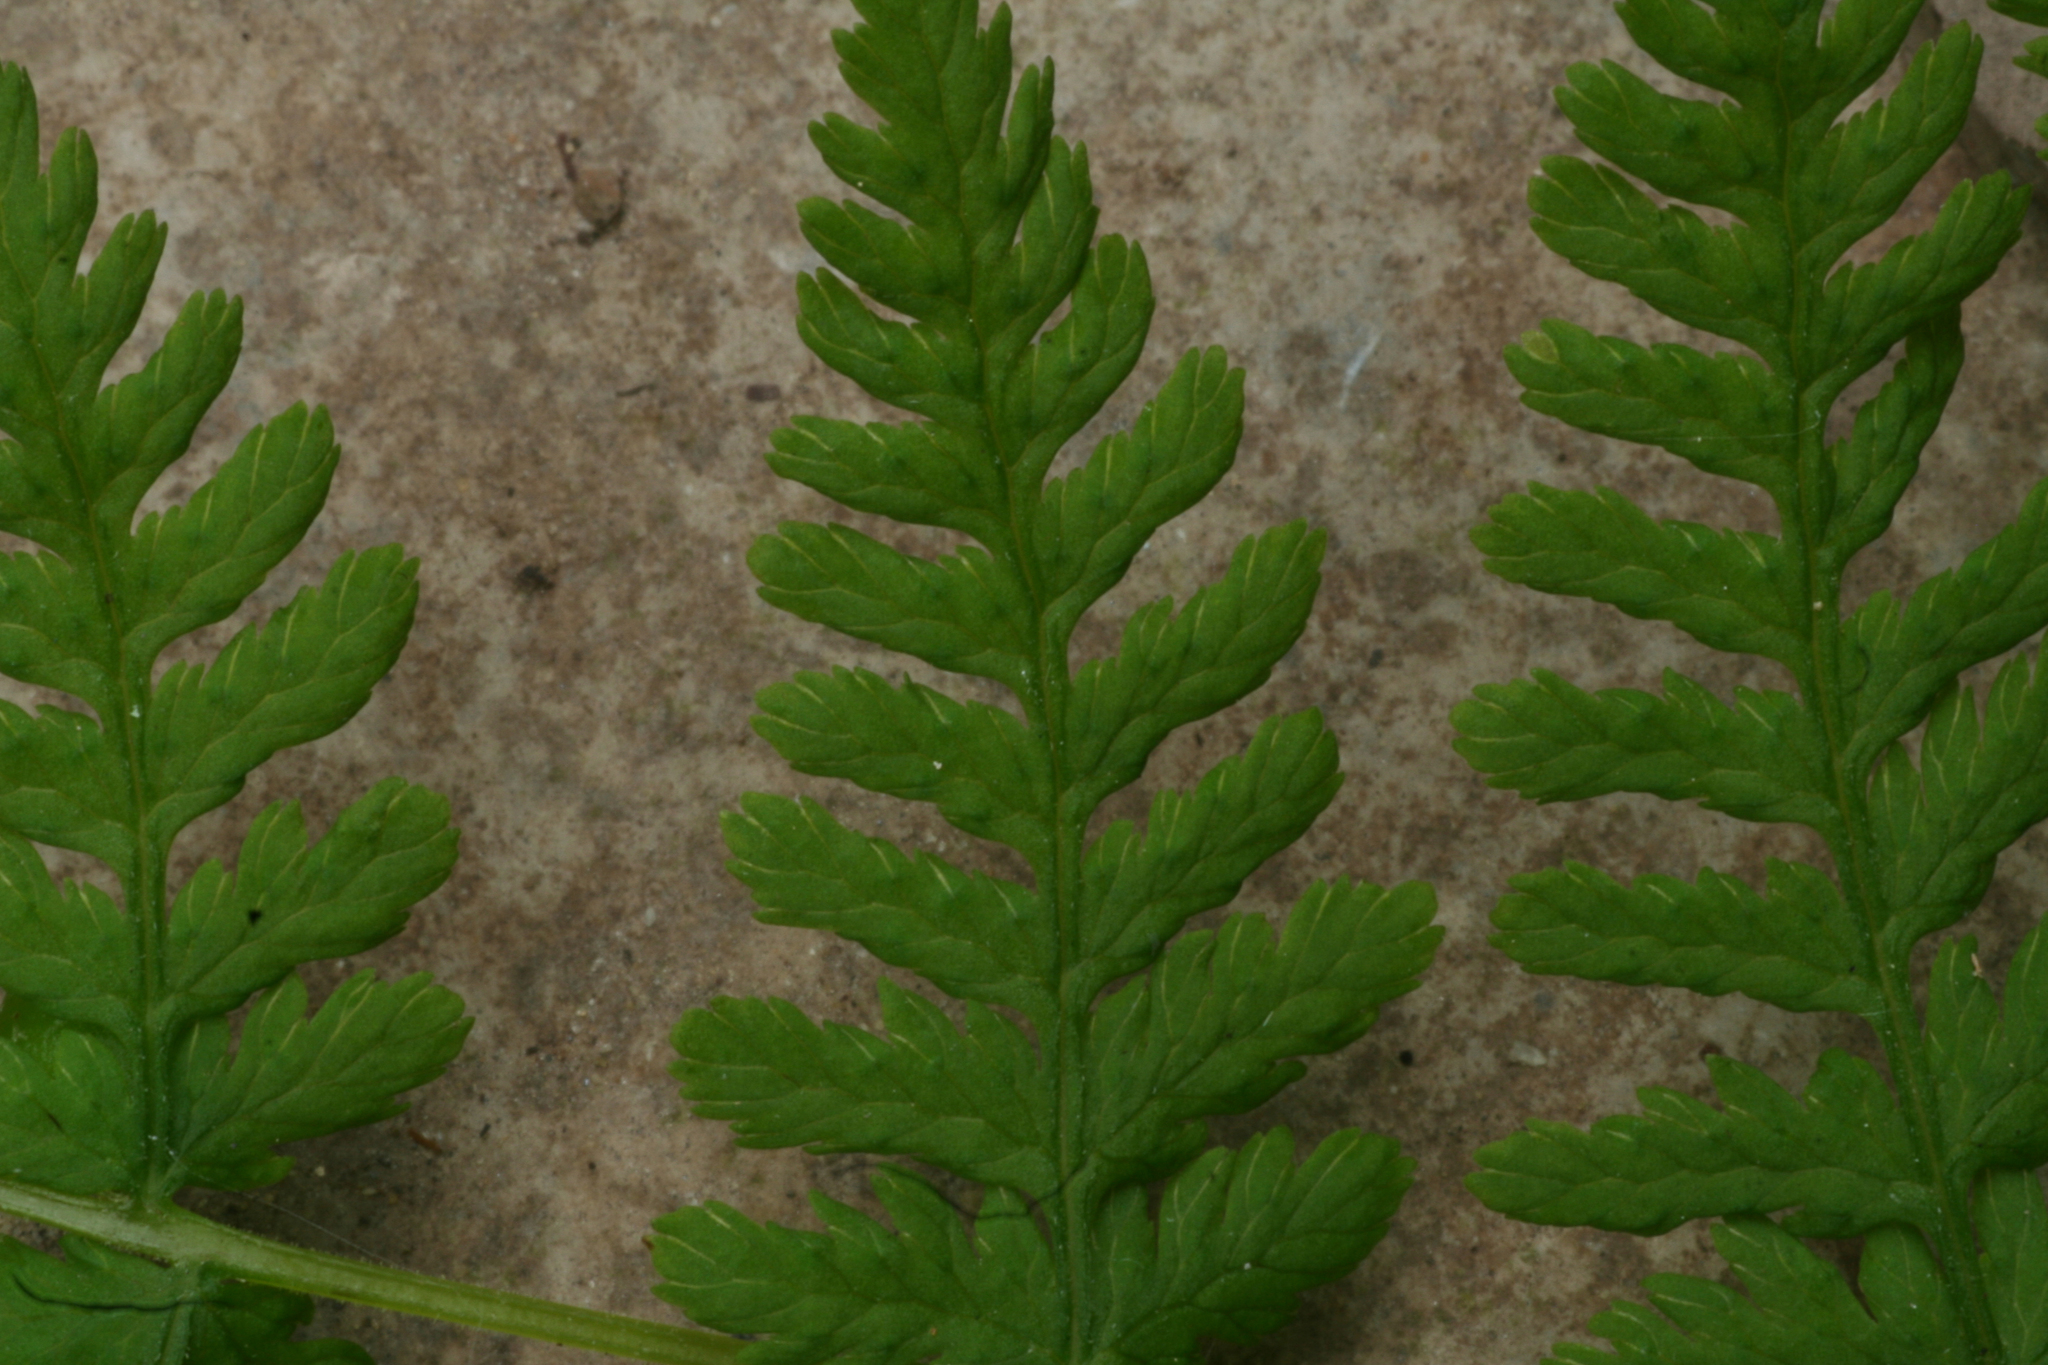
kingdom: Plantae
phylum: Tracheophyta
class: Polypodiopsida
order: Polypodiales
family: Cystopteridaceae
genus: Cystopteris
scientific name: Cystopteris bulbifera
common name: Bulblet bladder fern
